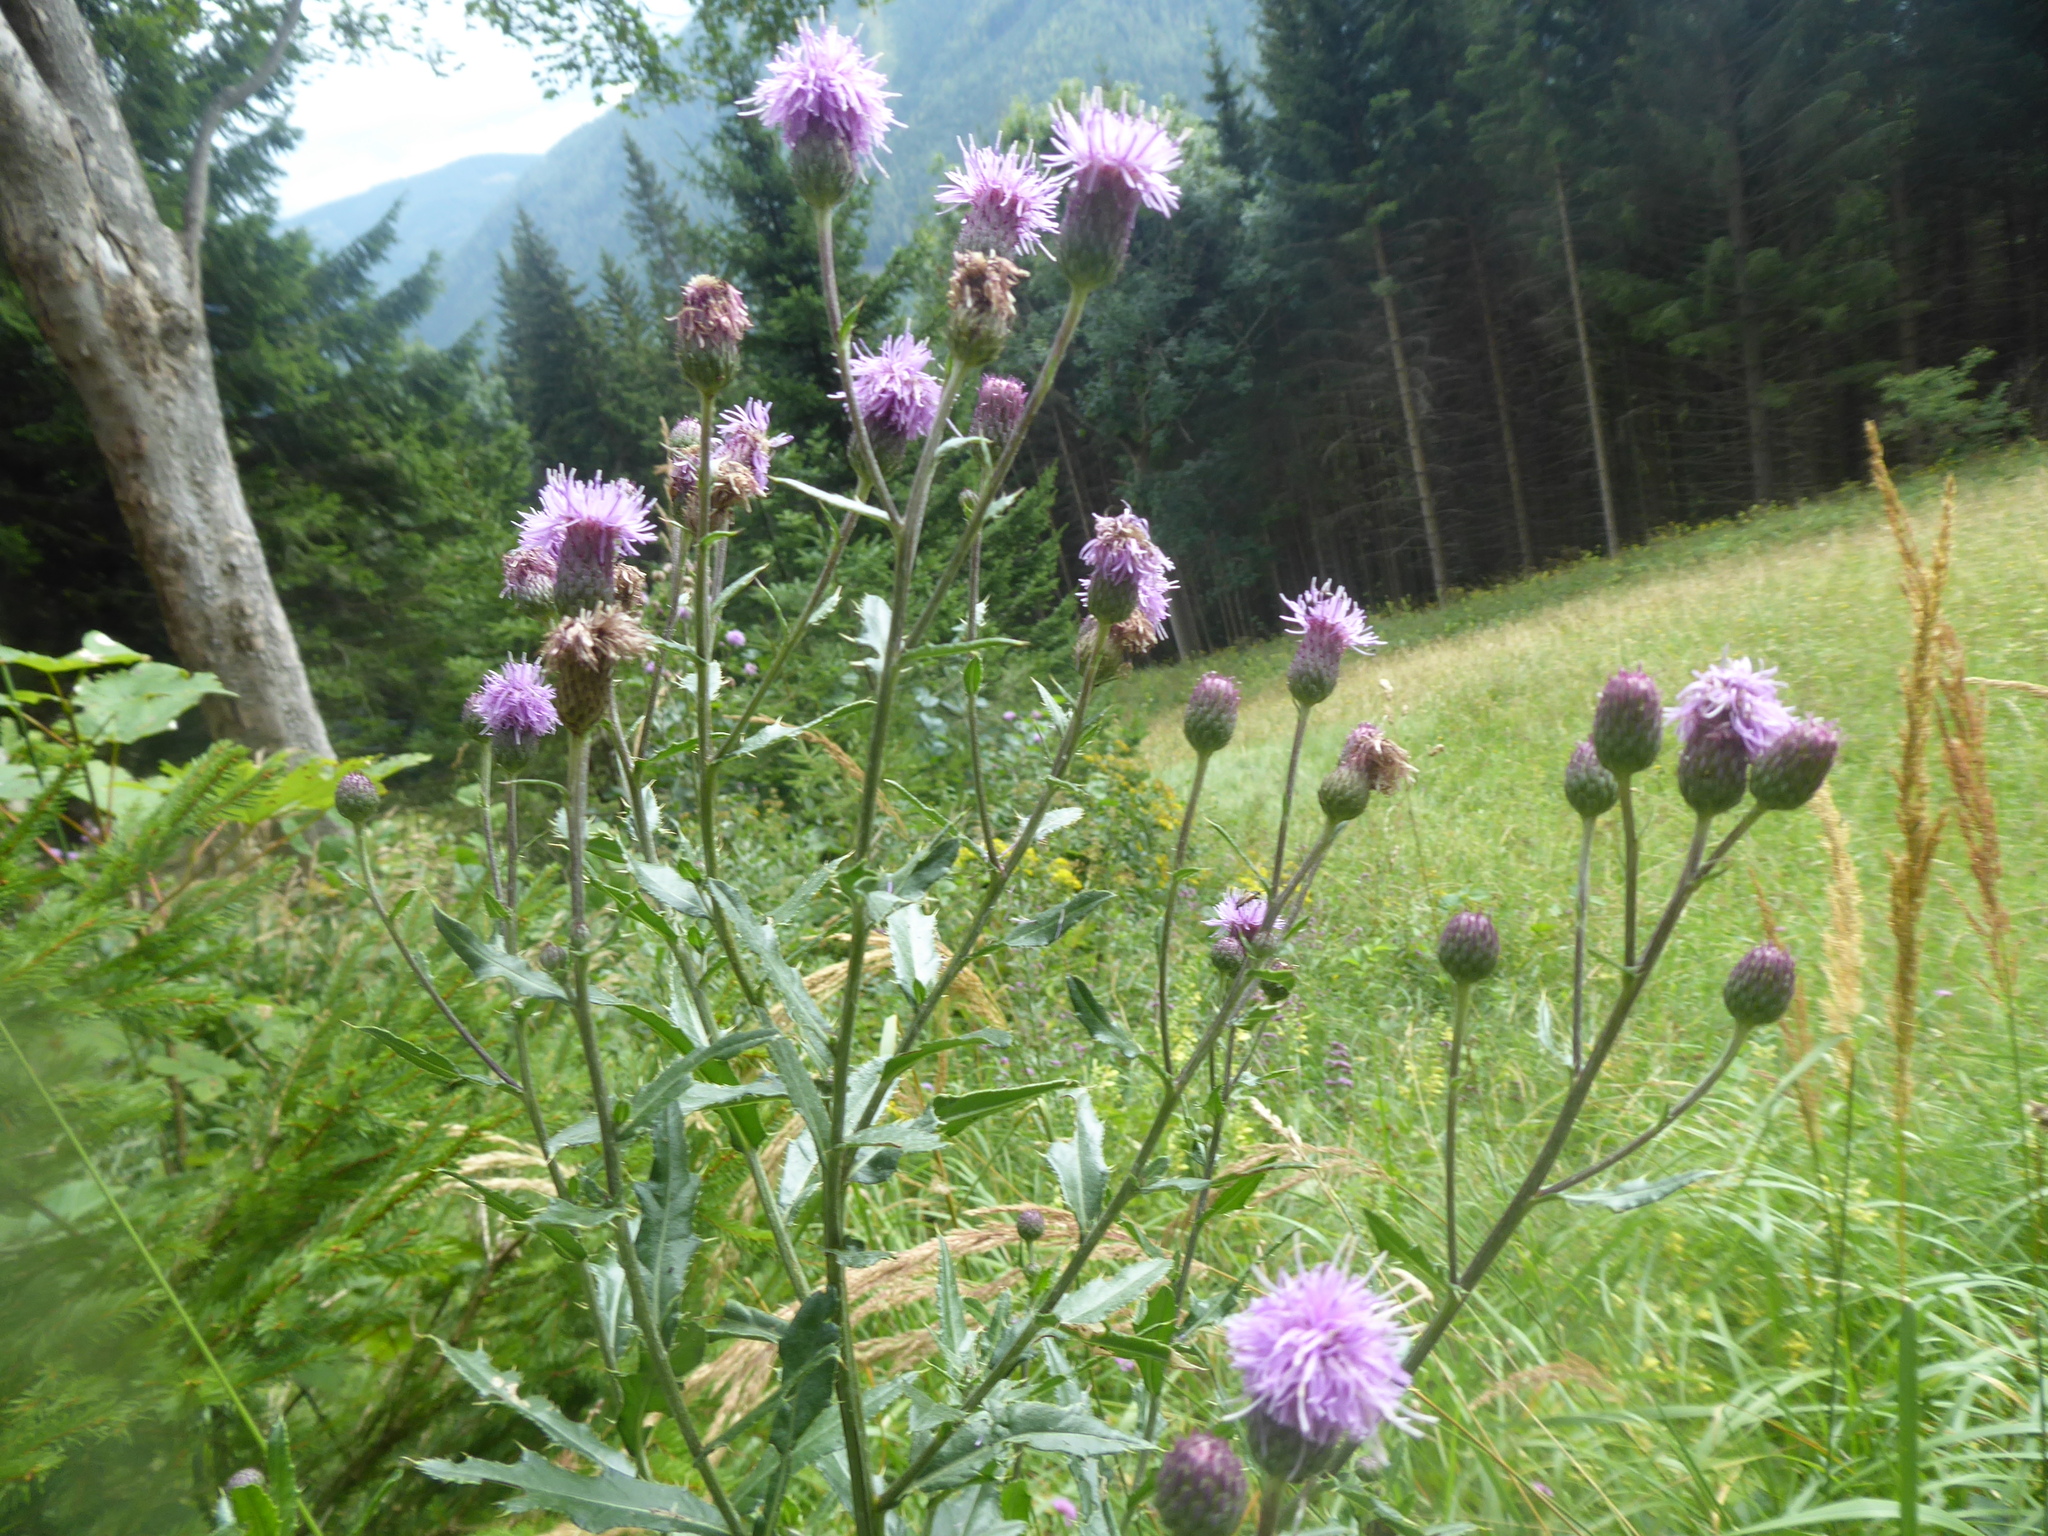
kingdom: Plantae
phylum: Tracheophyta
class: Magnoliopsida
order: Asterales
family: Asteraceae
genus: Cirsium
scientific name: Cirsium arvense
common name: Creeping thistle
